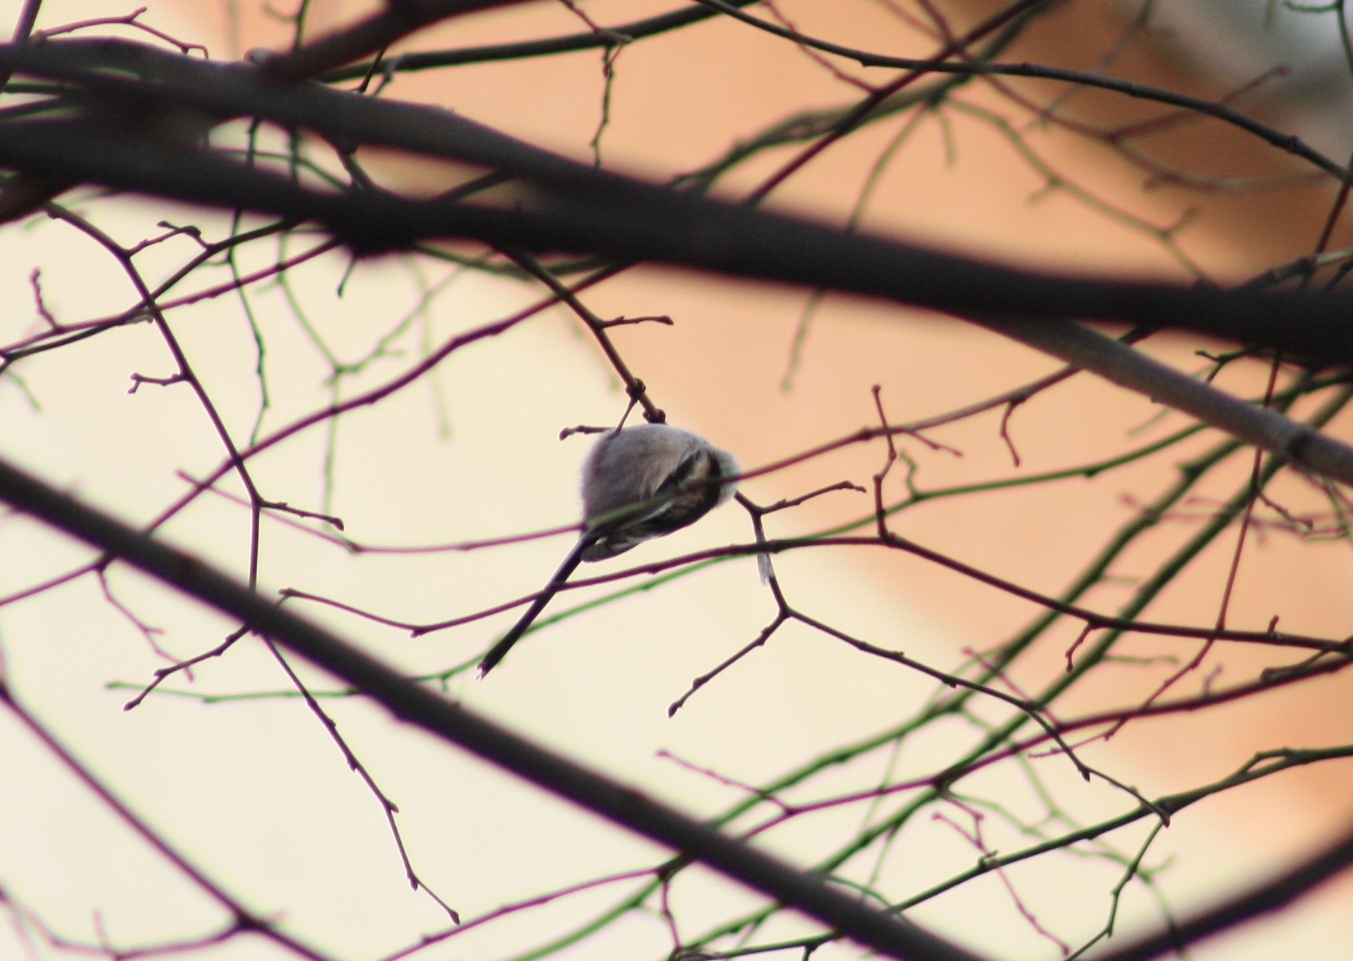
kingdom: Animalia
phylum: Chordata
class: Aves
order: Passeriformes
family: Aegithalidae
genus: Aegithalos
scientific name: Aegithalos caudatus
